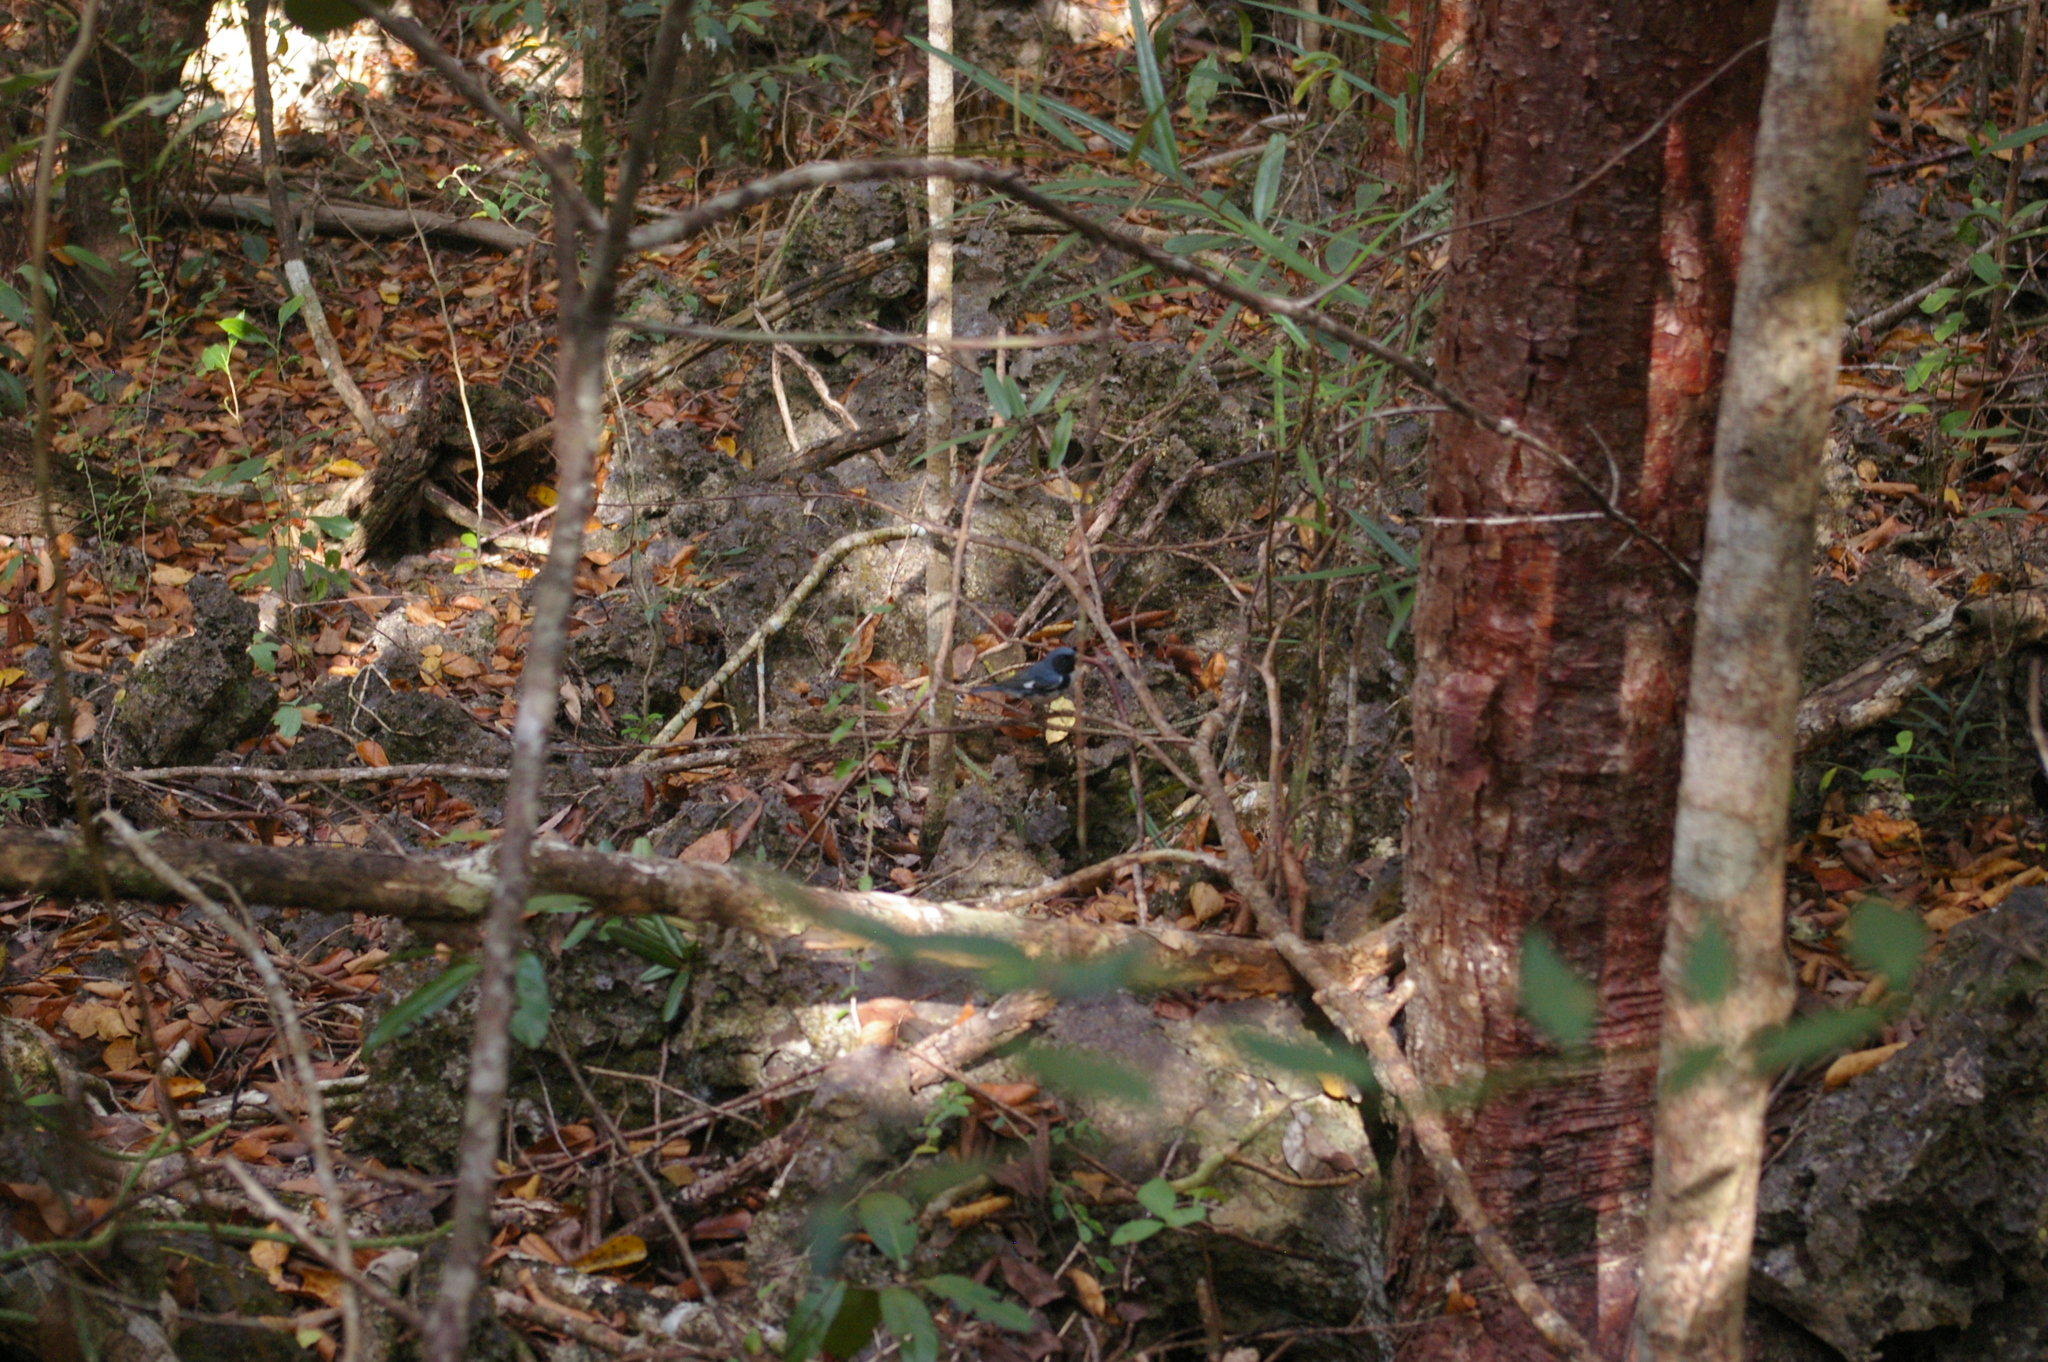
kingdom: Animalia
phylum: Chordata
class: Aves
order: Passeriformes
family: Parulidae
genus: Setophaga
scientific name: Setophaga caerulescens
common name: Black-throated blue warbler
